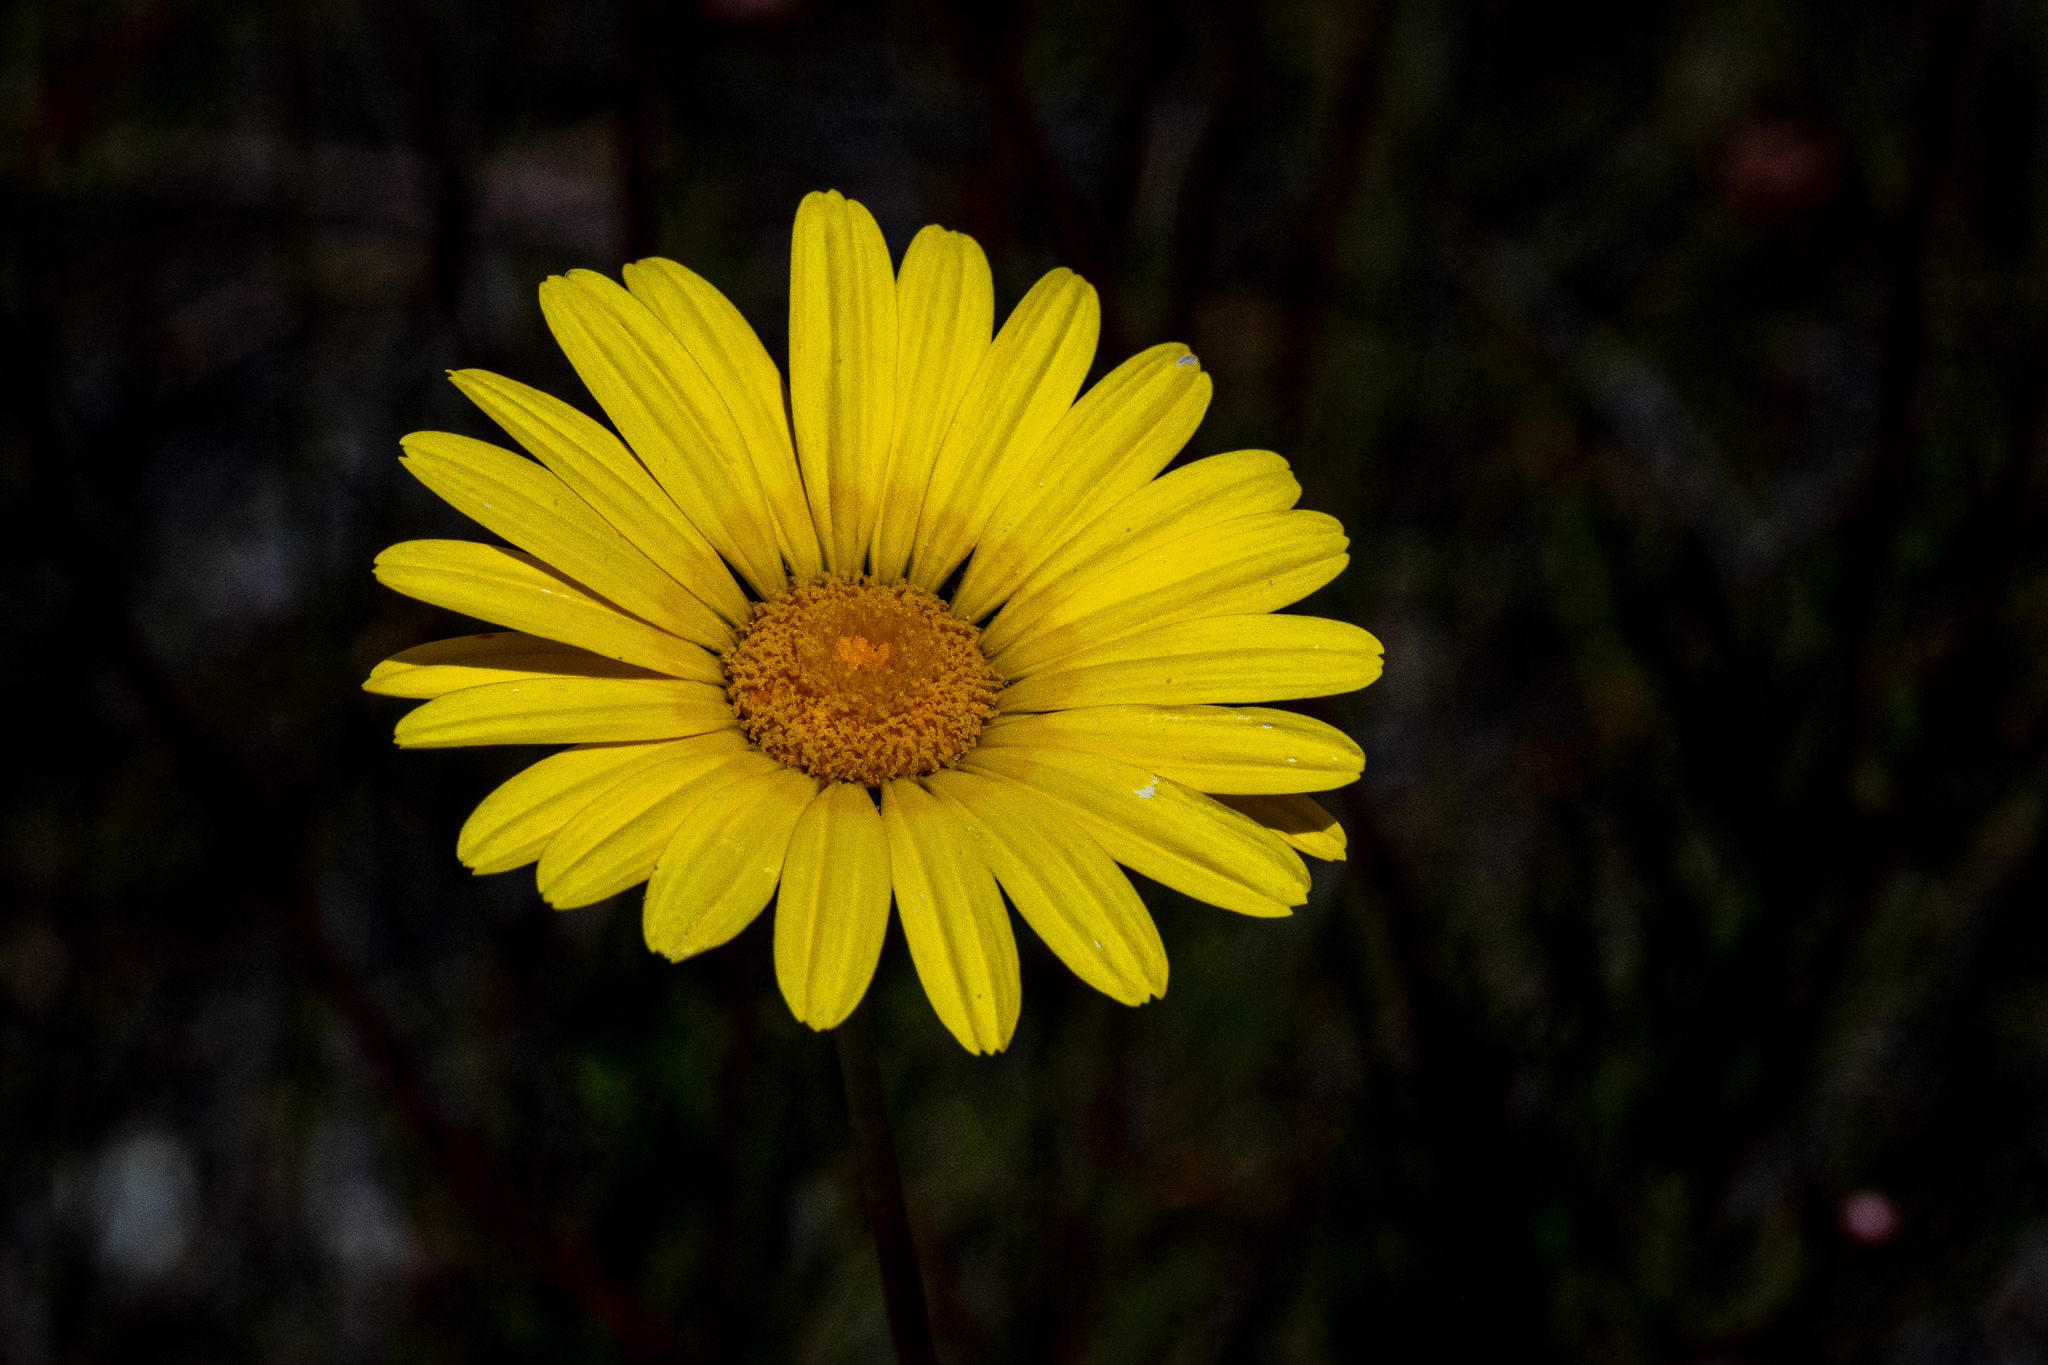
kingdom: Plantae
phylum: Tracheophyta
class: Magnoliopsida
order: Asterales
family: Asteraceae
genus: Ursinia
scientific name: Ursinia paleacea
